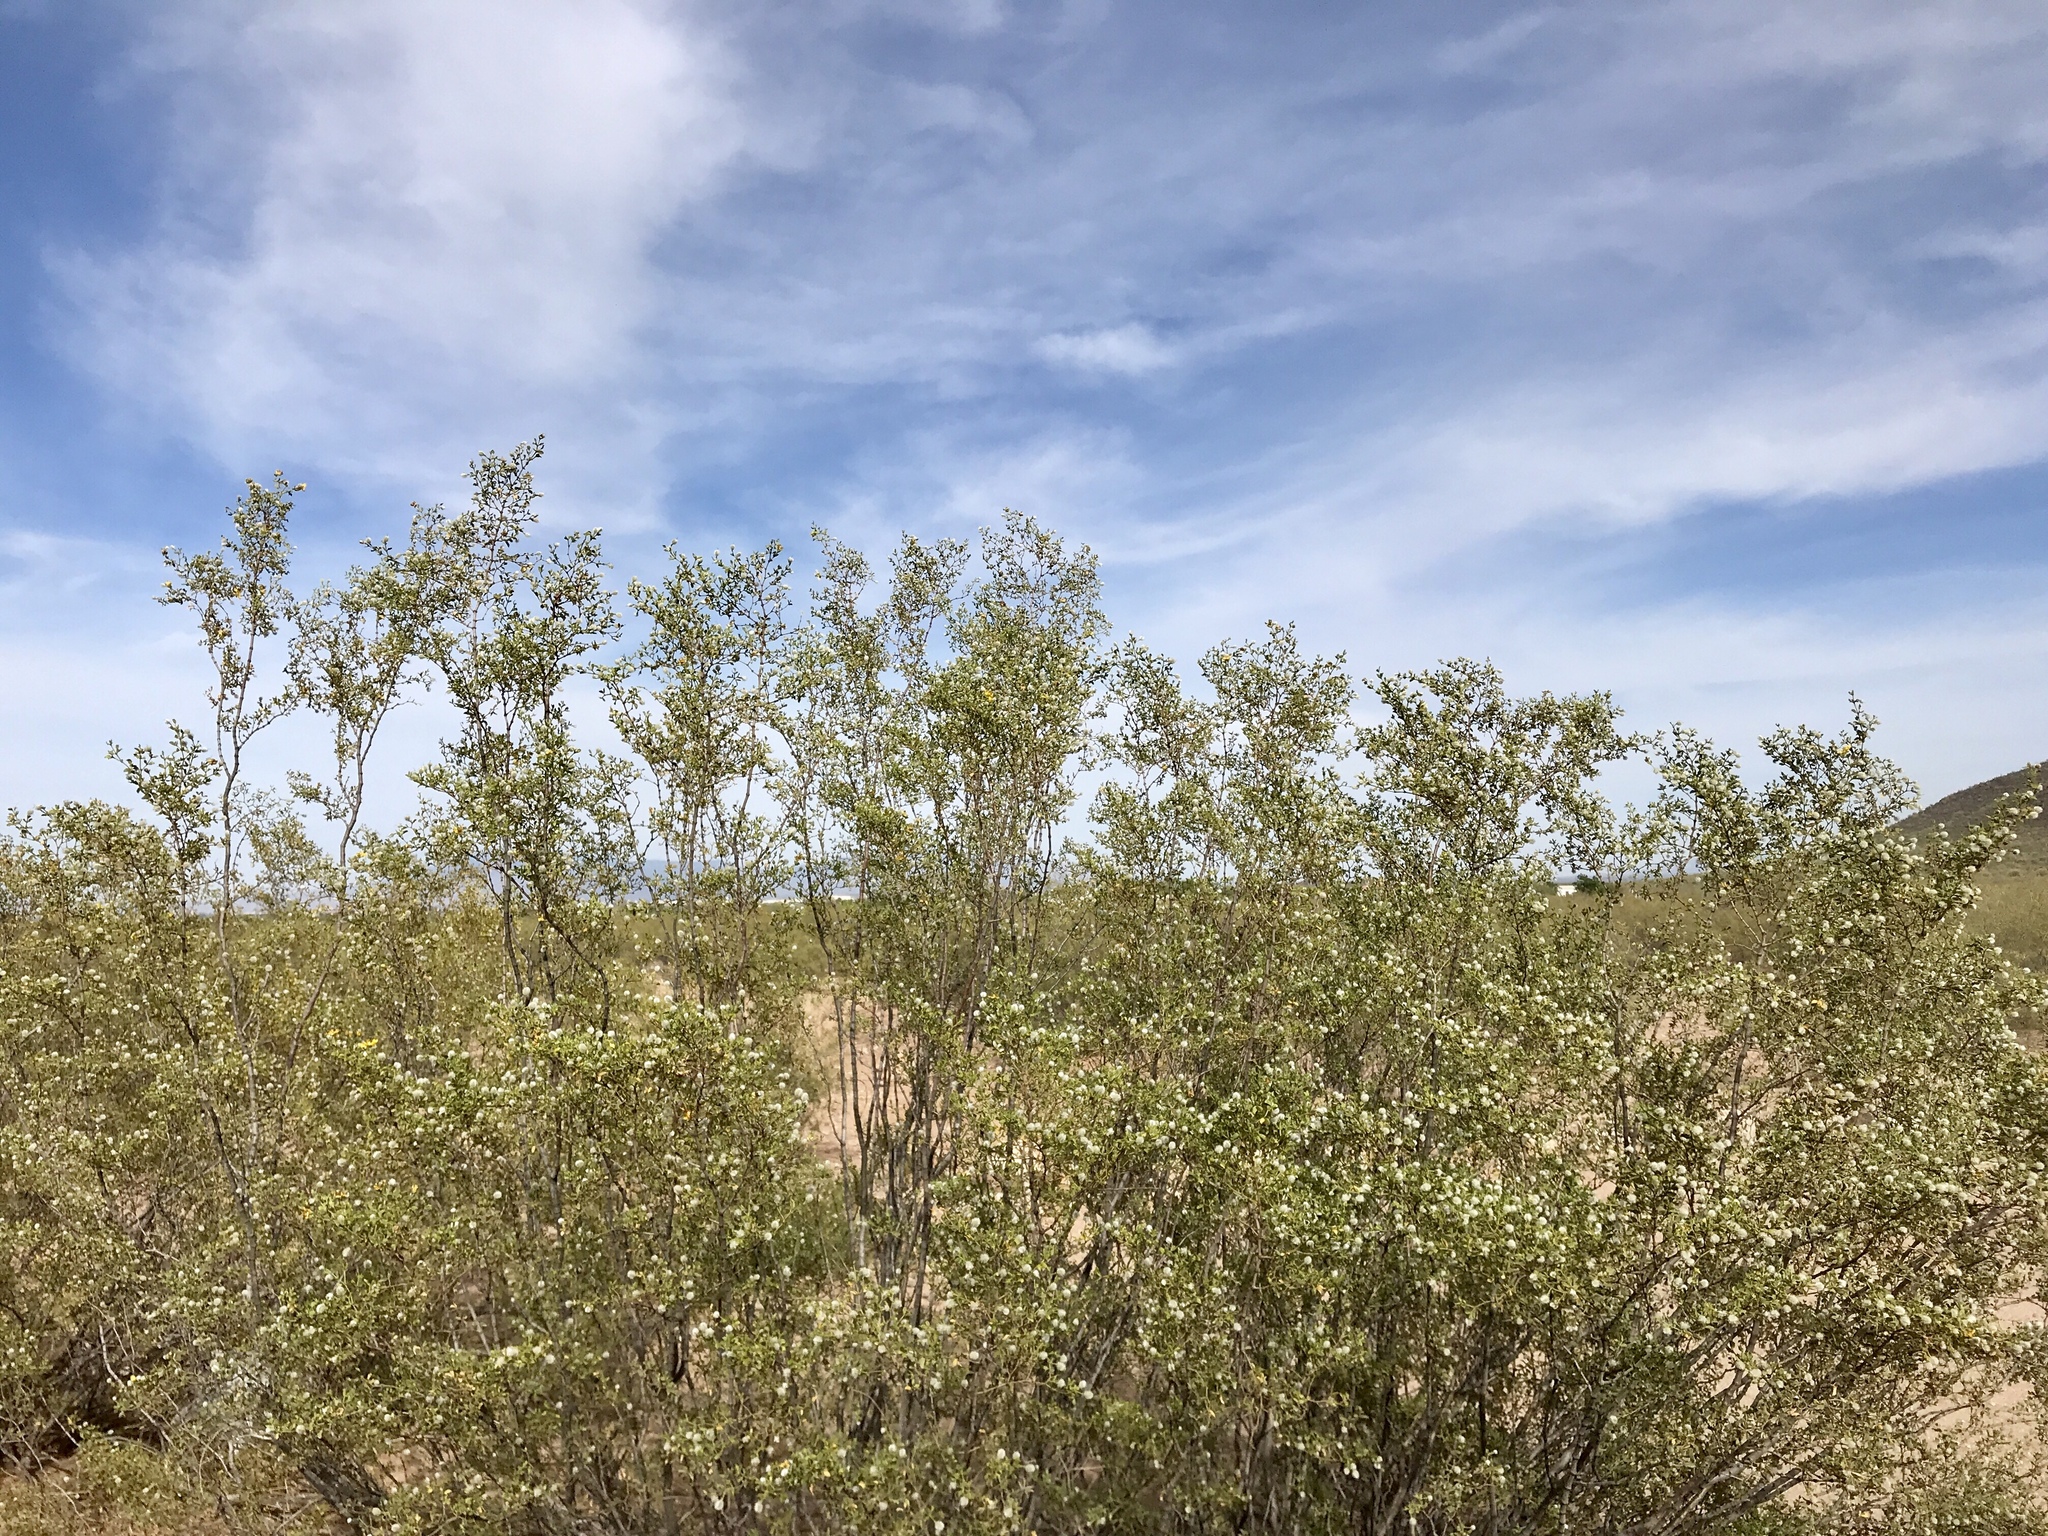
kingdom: Plantae
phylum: Tracheophyta
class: Magnoliopsida
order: Zygophyllales
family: Zygophyllaceae
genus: Larrea
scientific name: Larrea tridentata
